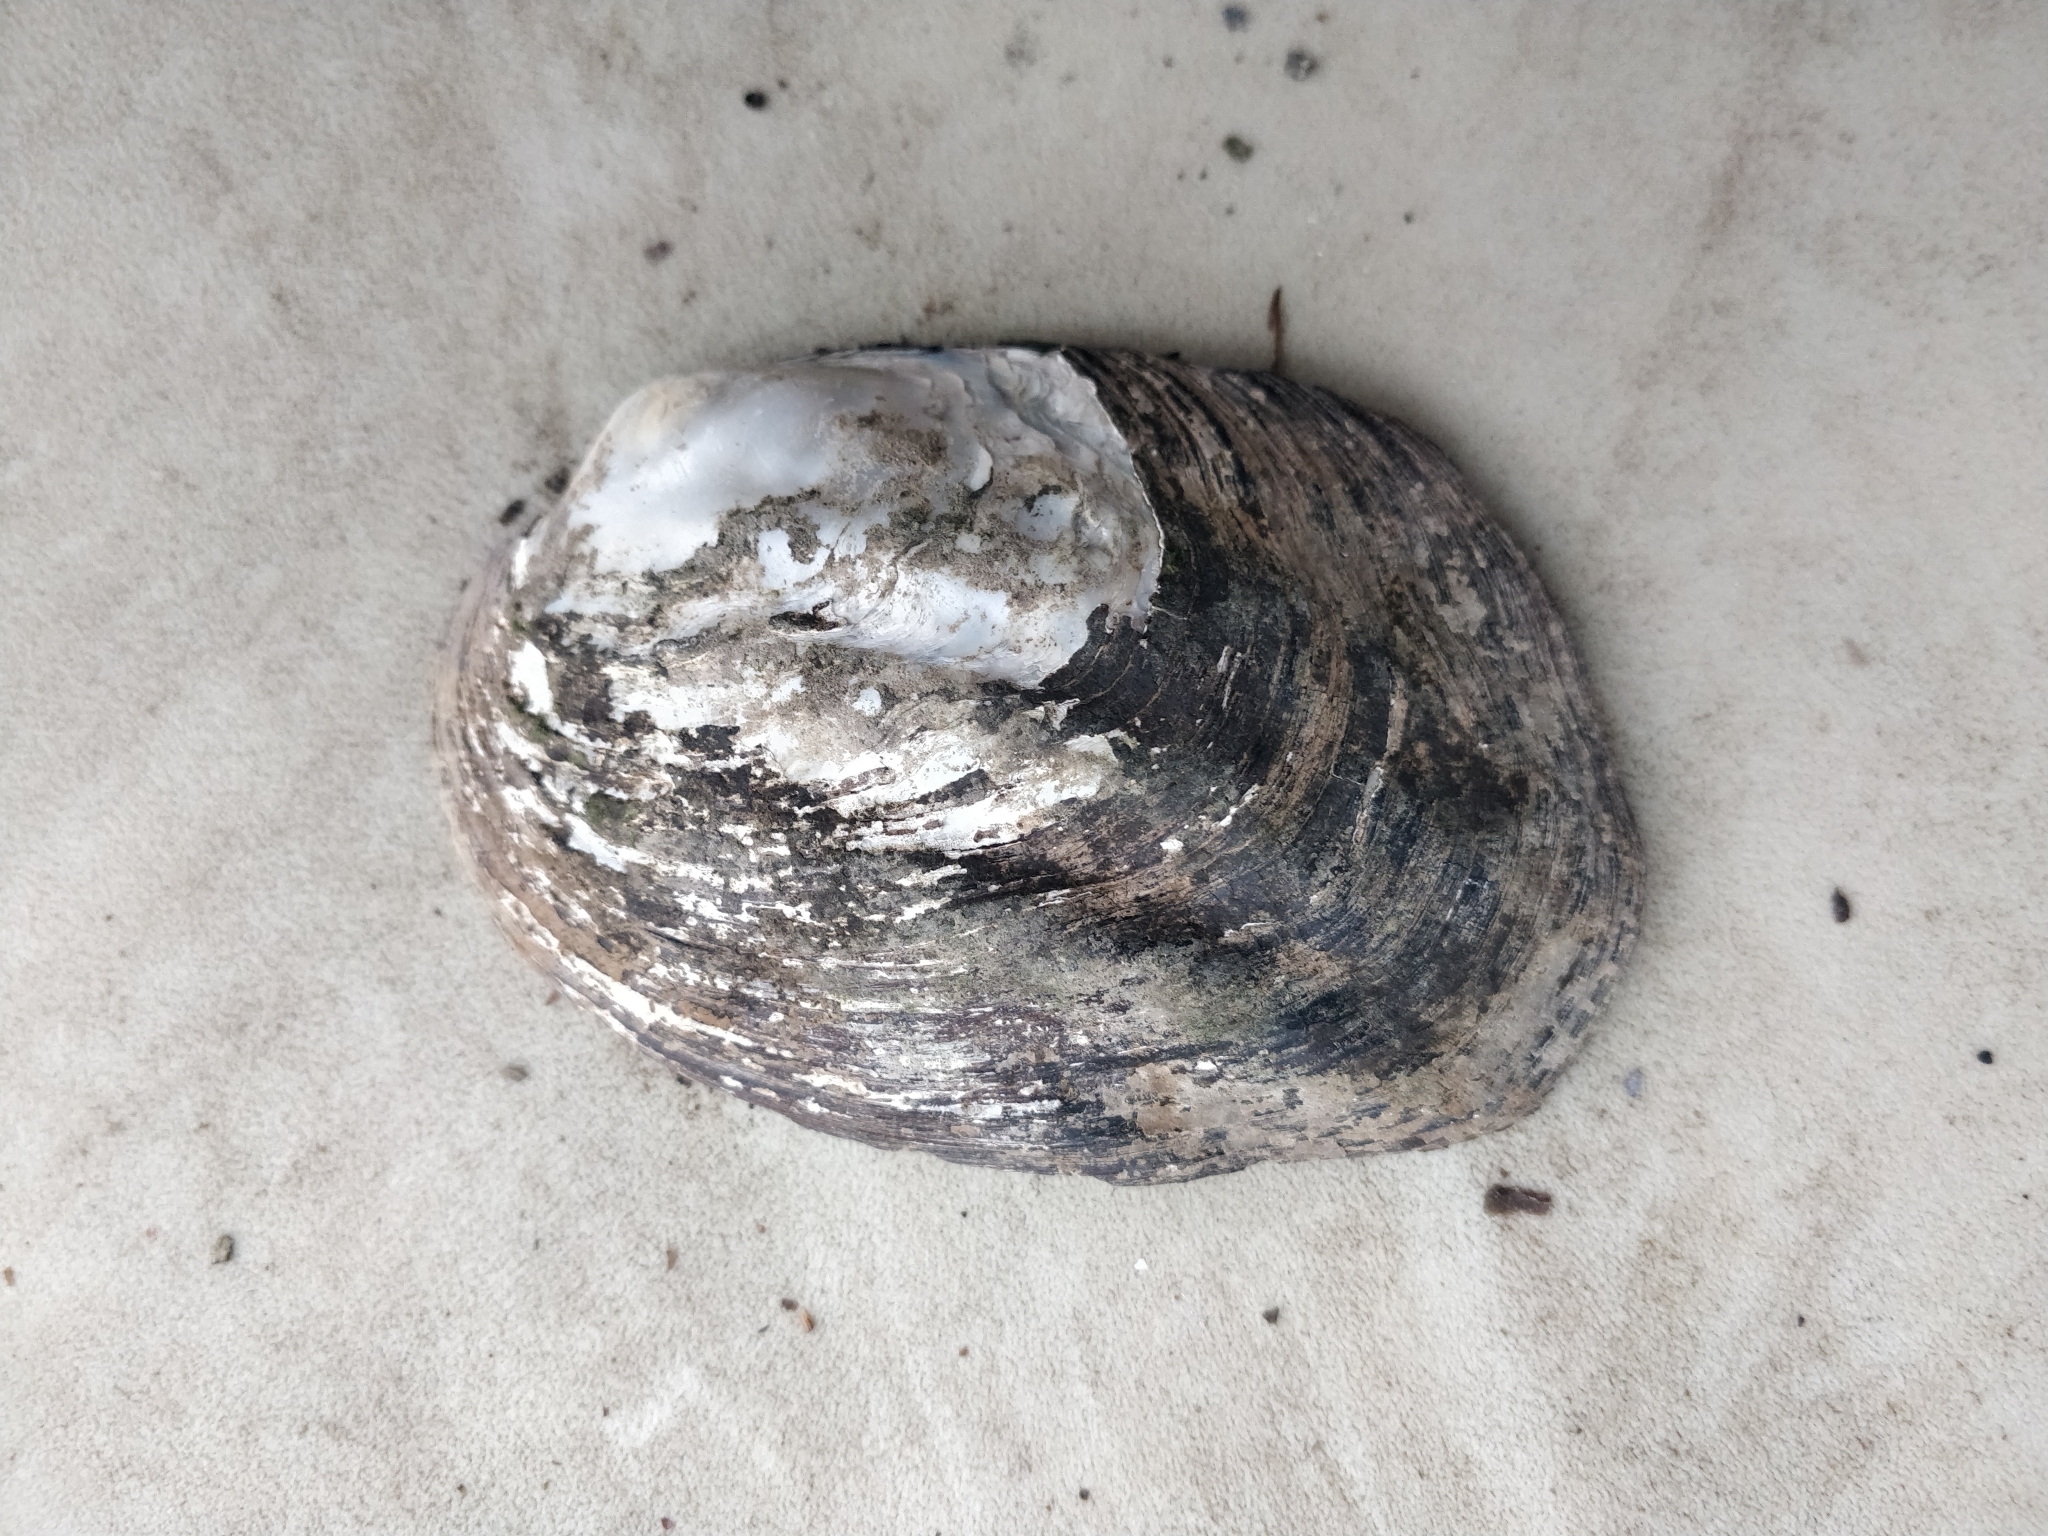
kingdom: Animalia
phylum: Mollusca
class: Bivalvia
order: Unionida
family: Unionidae
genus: Amblema
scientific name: Amblema plicata
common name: Threeridge
